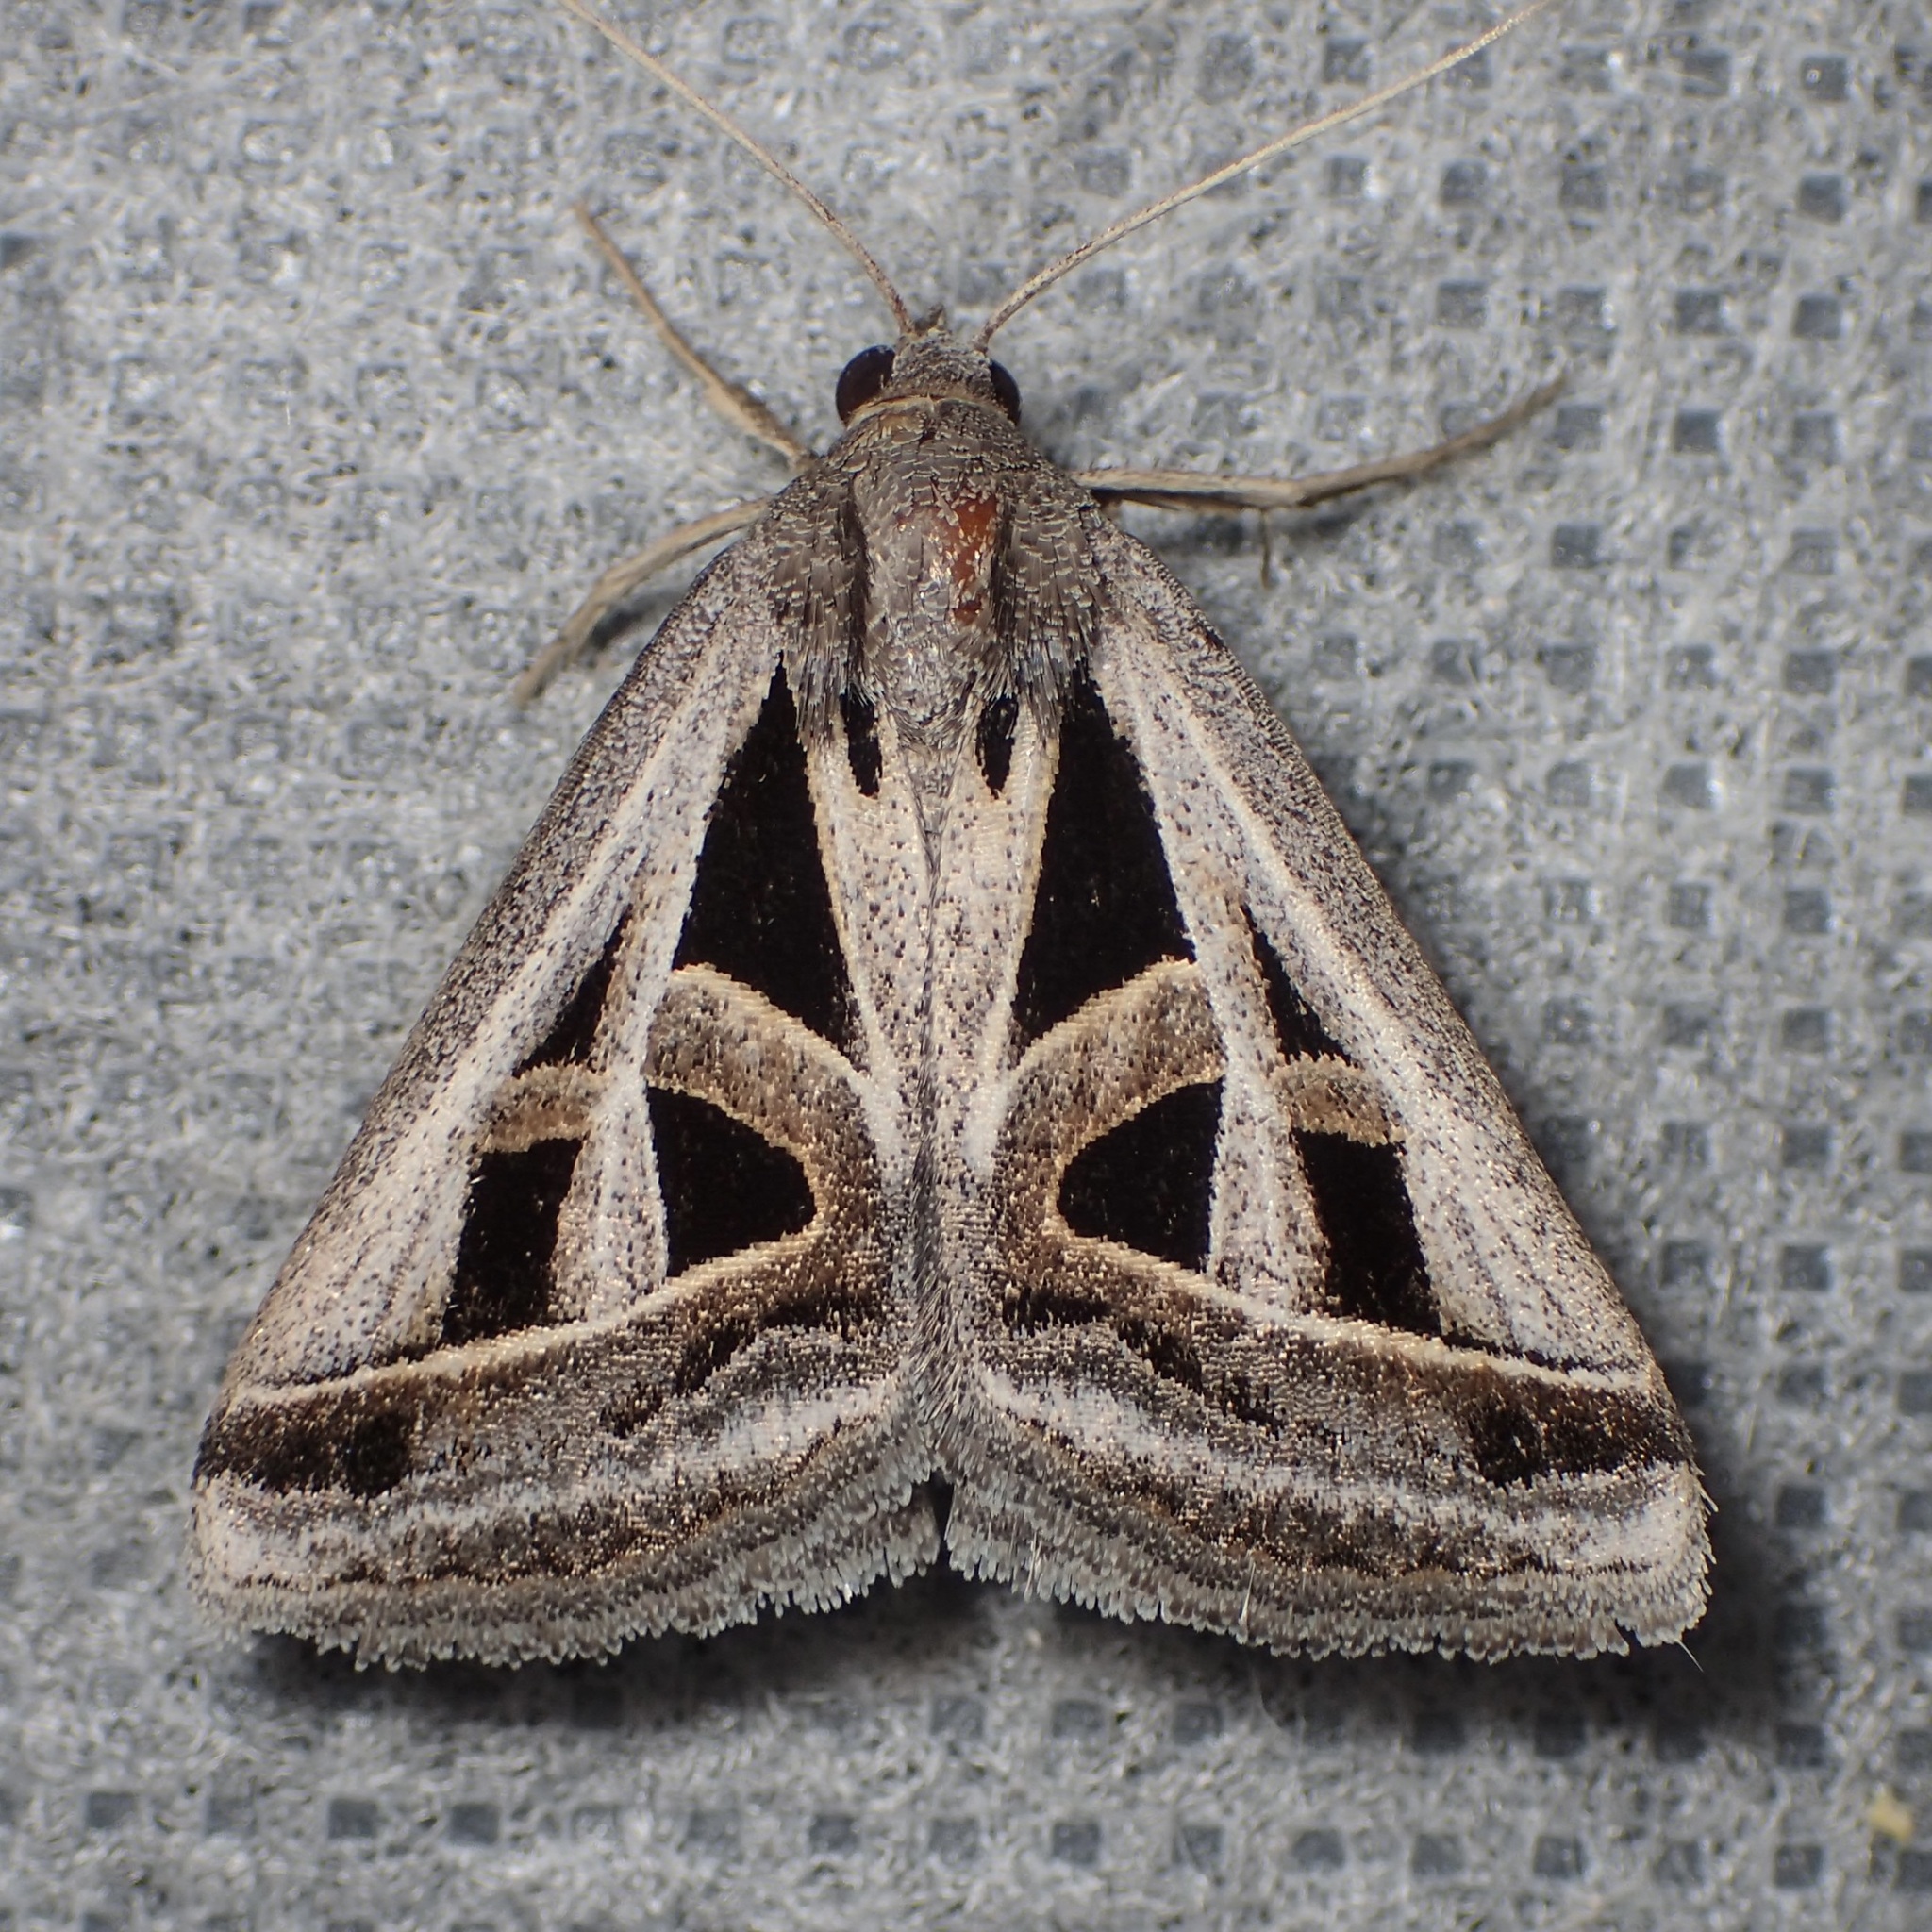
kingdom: Animalia
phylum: Arthropoda
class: Insecta
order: Lepidoptera
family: Erebidae
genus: Callistege
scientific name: Callistege diagonalis
